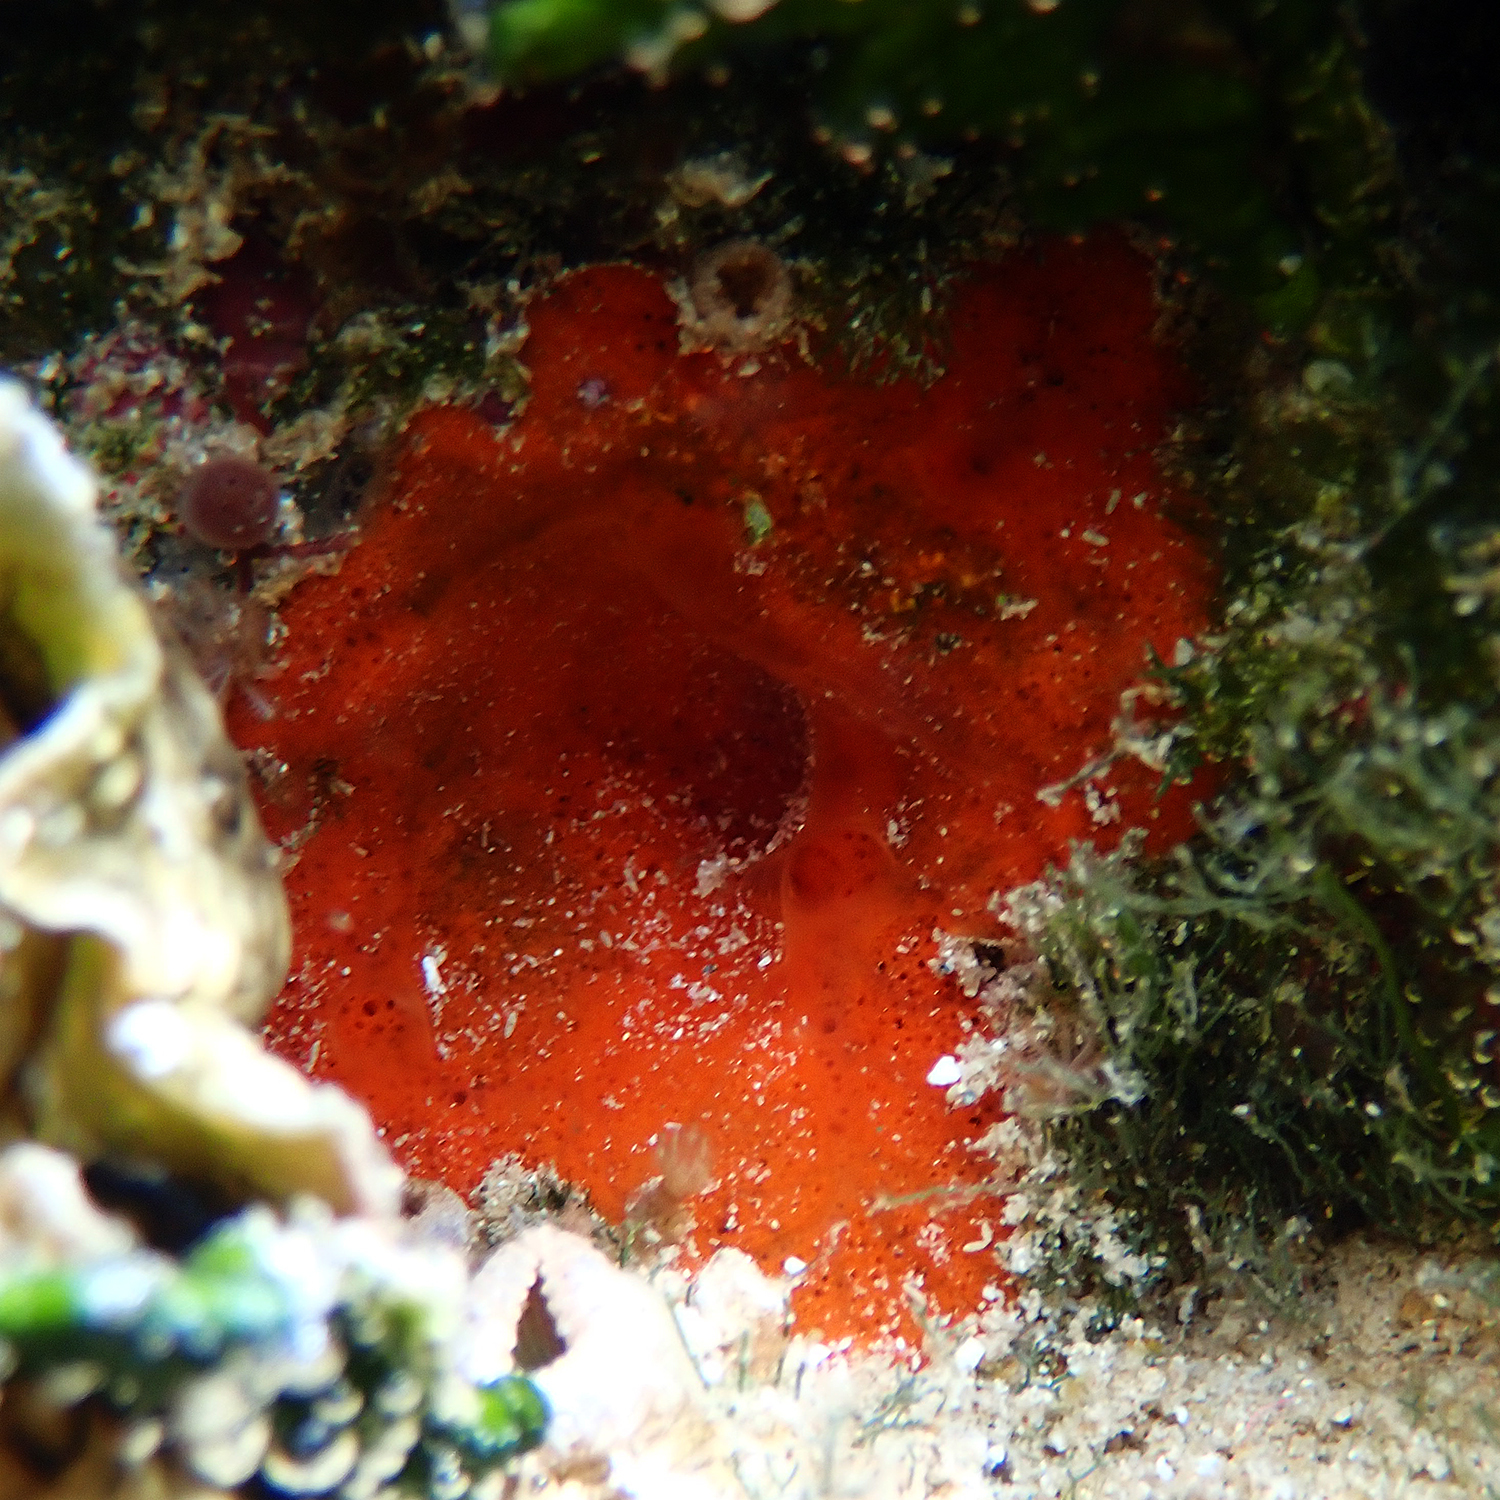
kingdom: Animalia
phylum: Porifera
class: Demospongiae
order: Poecilosclerida
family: Mycalidae
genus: Mycale
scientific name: Mycale grandis
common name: Orange sponge
